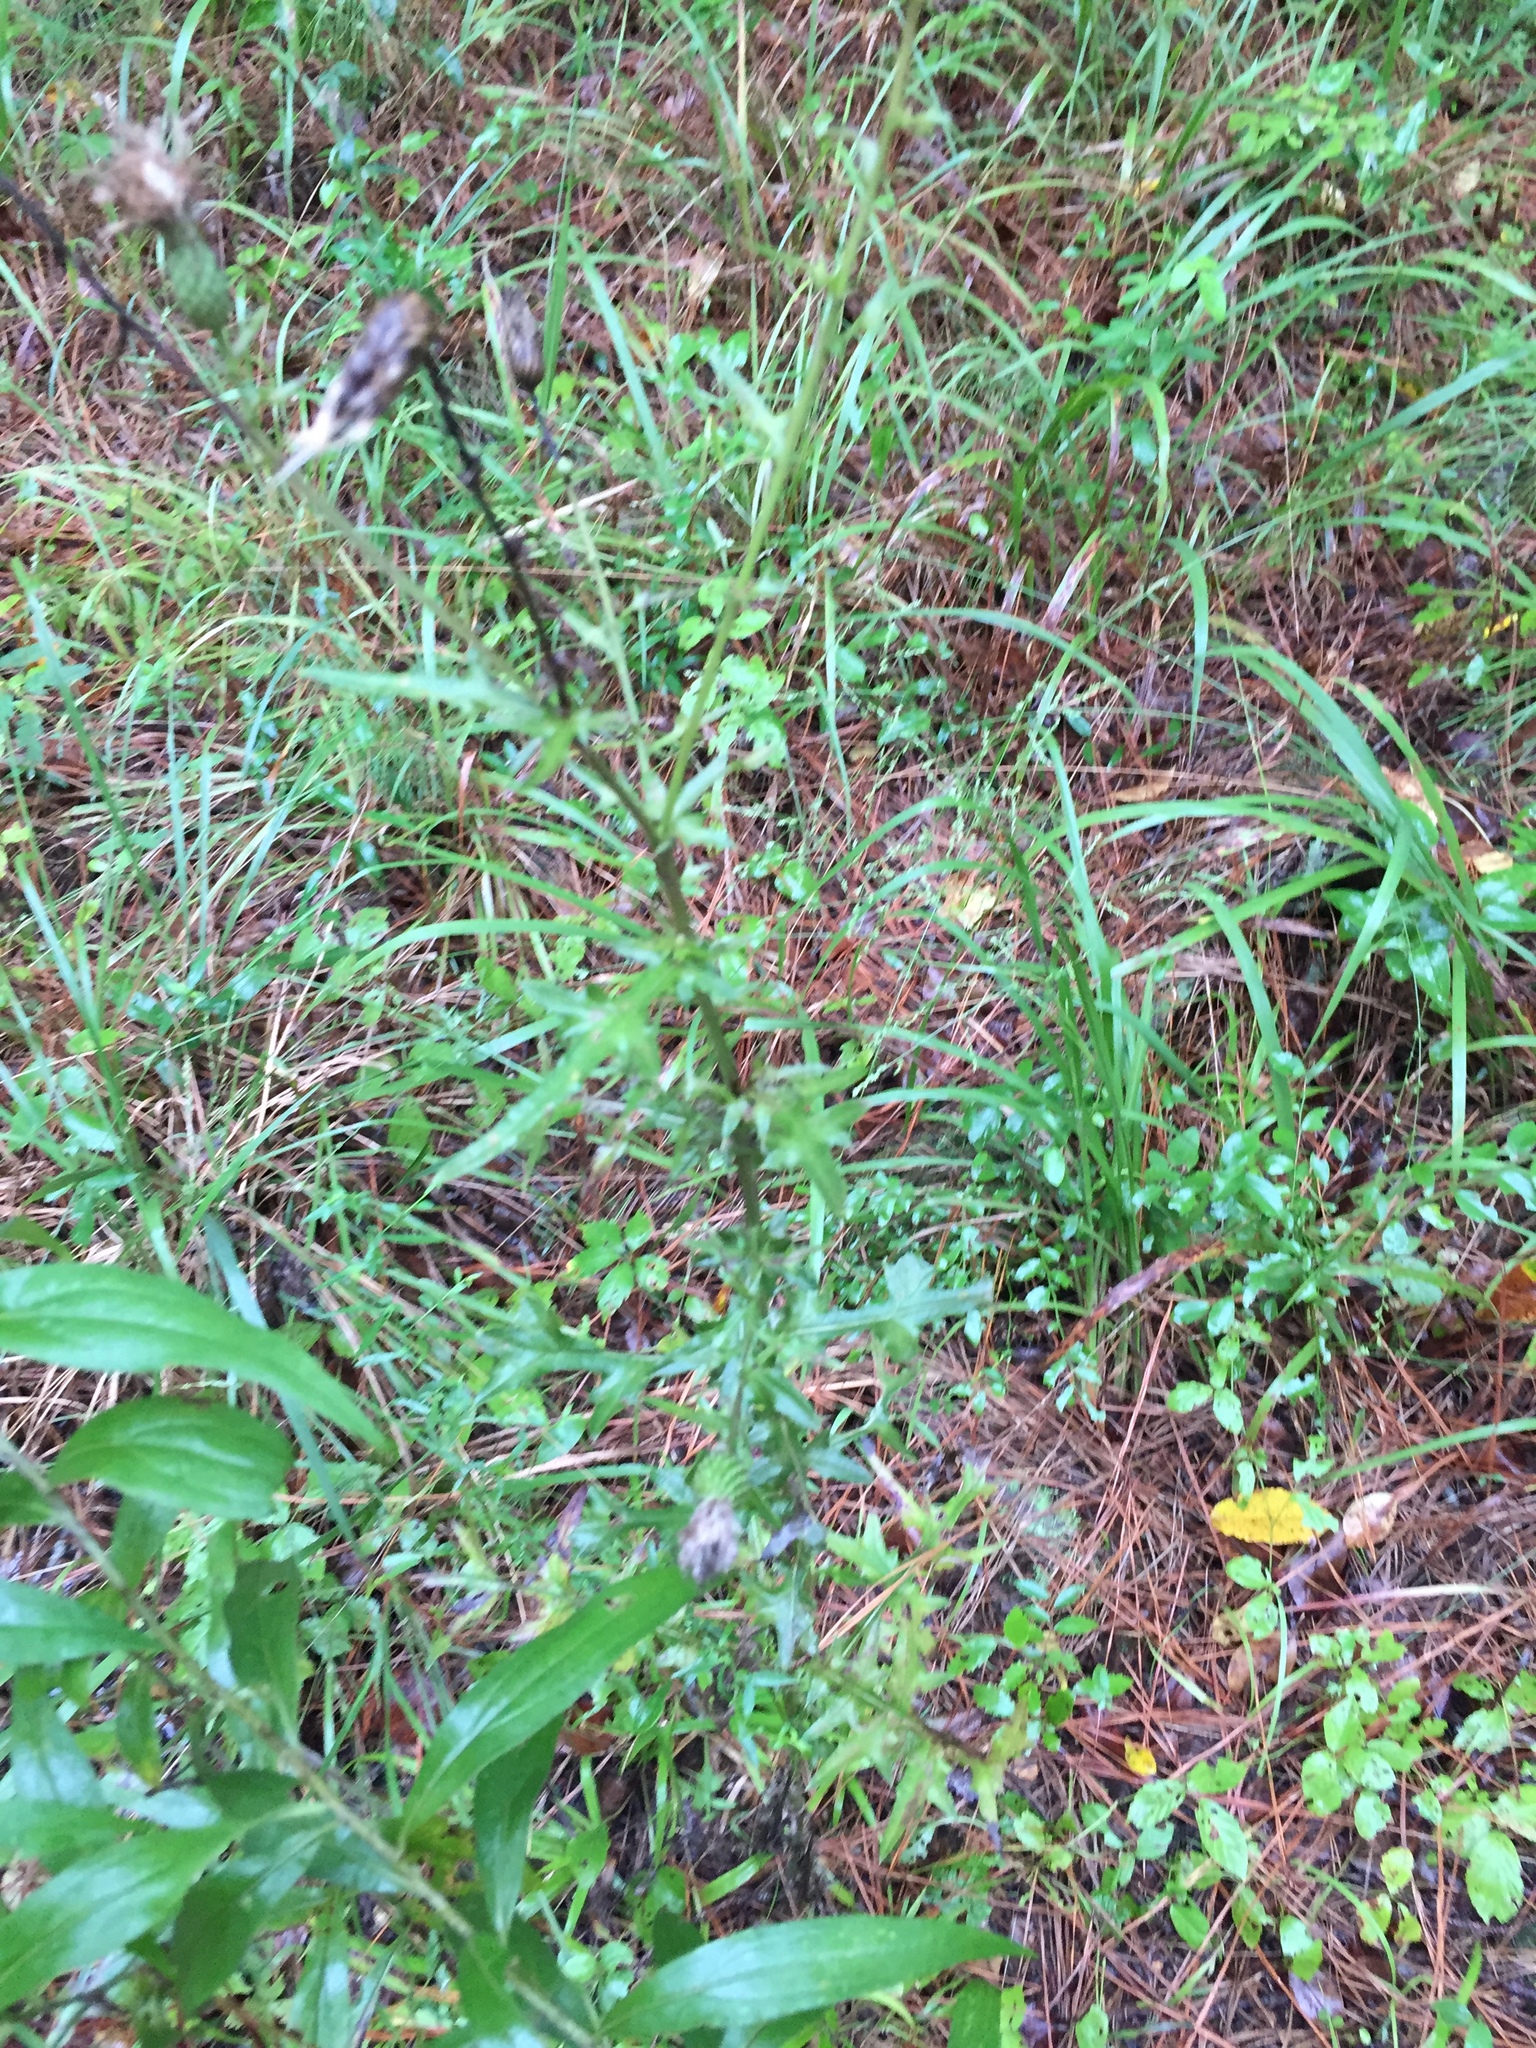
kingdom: Plantae
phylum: Tracheophyta
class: Magnoliopsida
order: Asterales
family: Asteraceae
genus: Cirsium
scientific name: Cirsium nuttalii
